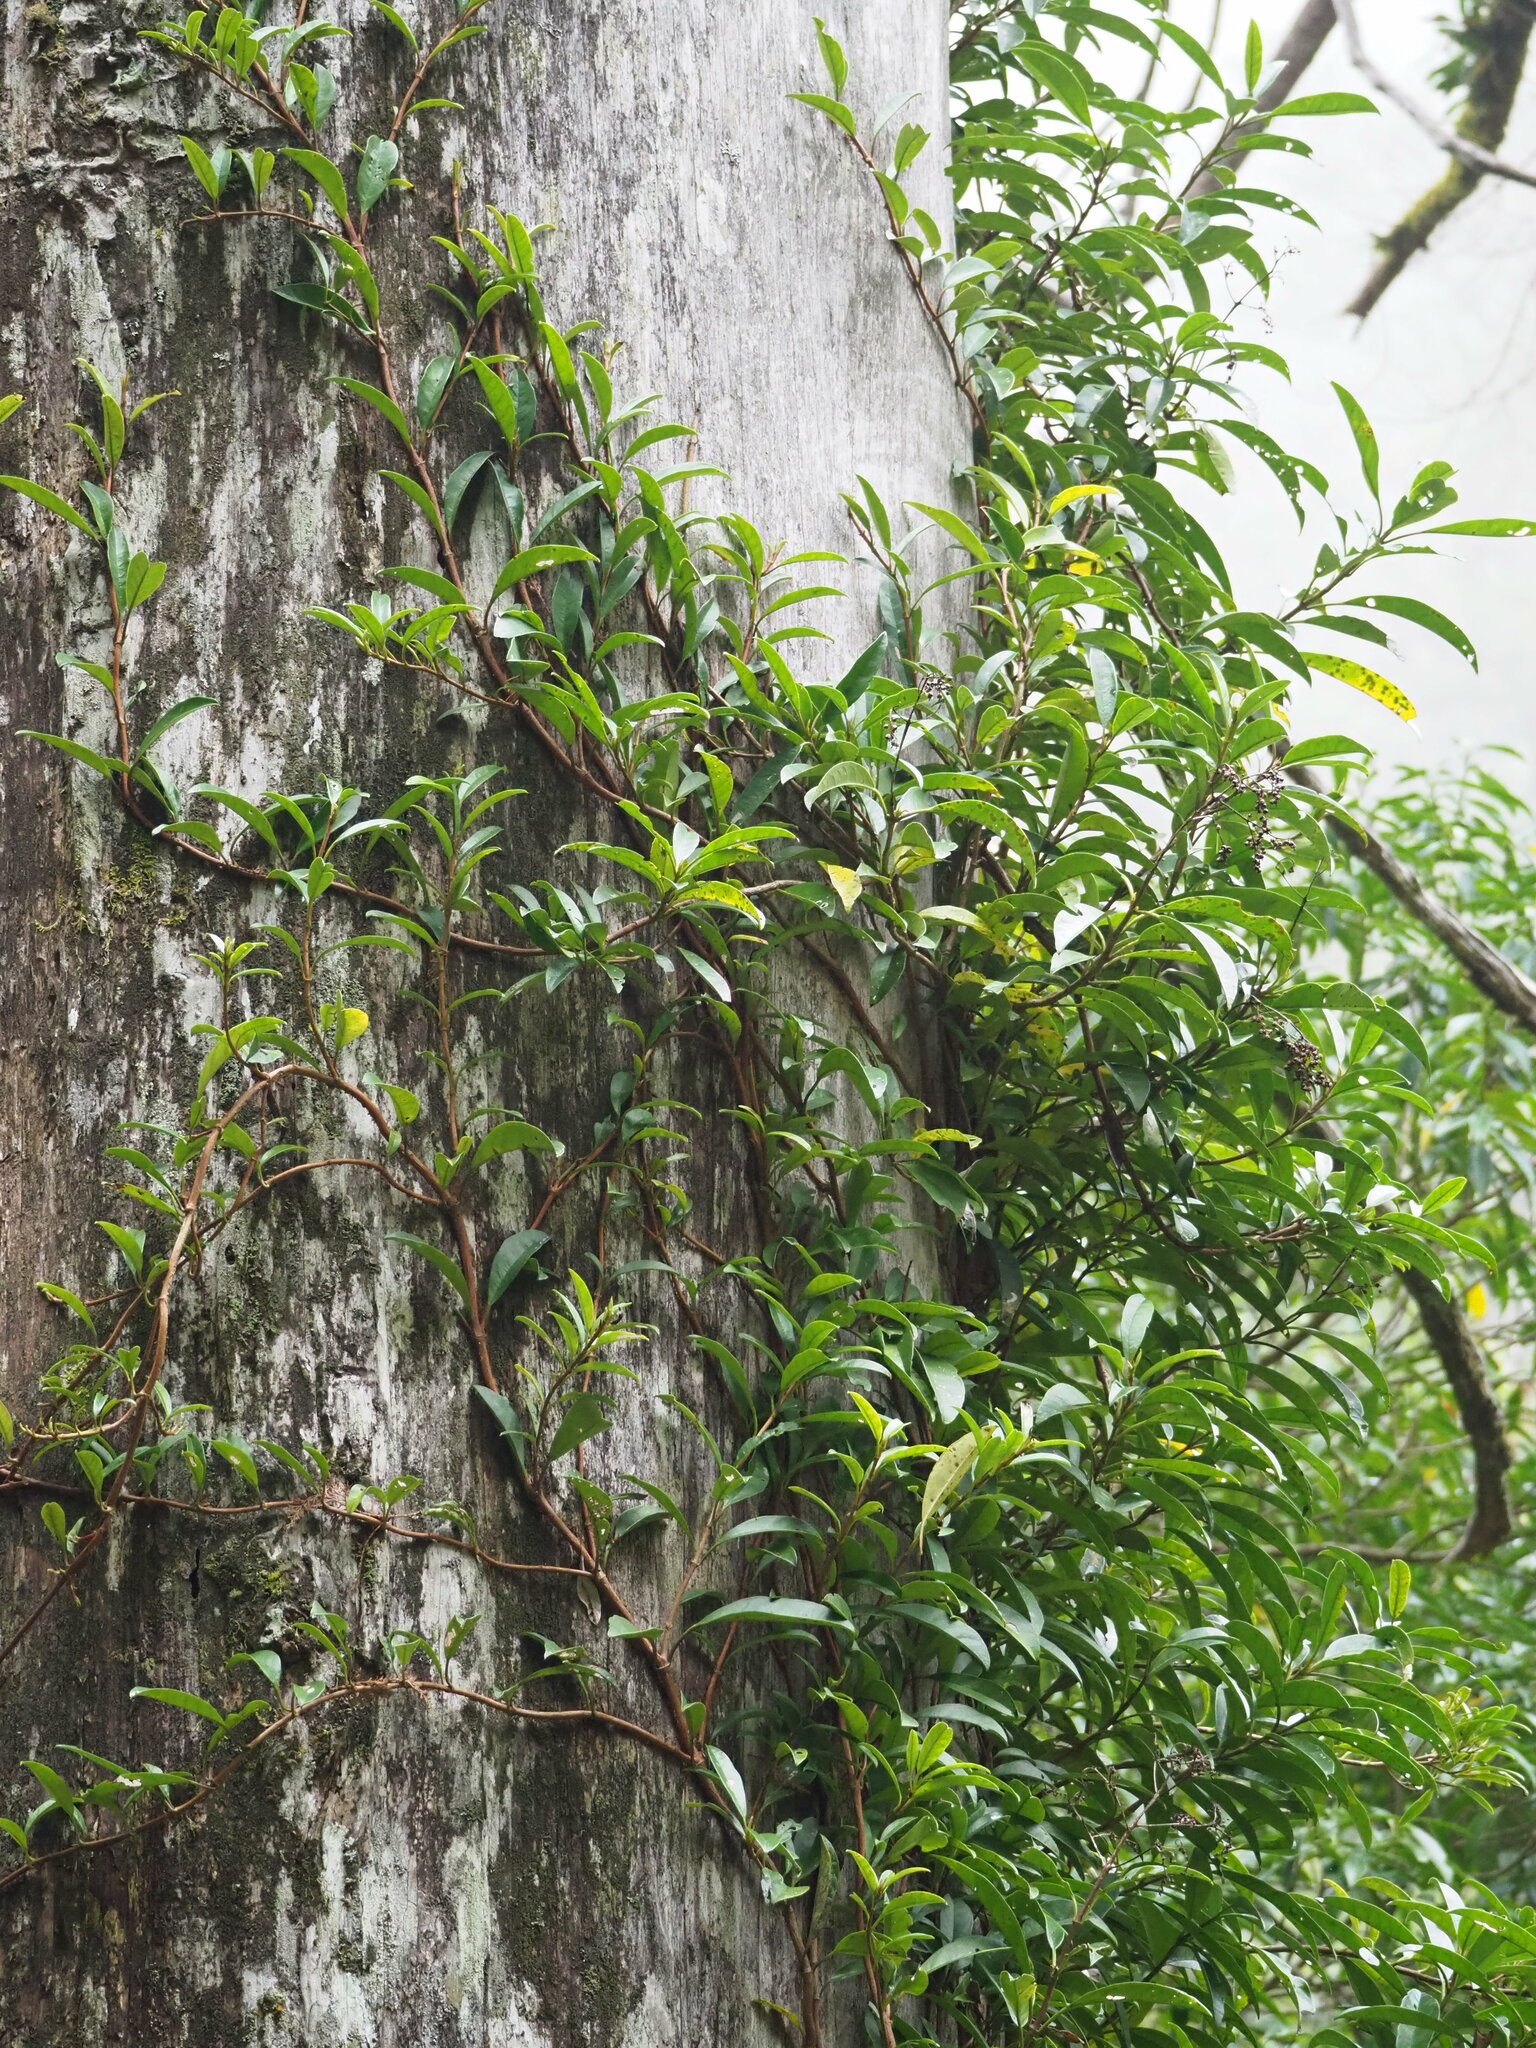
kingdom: Plantae
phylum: Tracheophyta
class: Magnoliopsida
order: Cornales
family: Hydrangeaceae
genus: Hydrangea
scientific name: Hydrangea viburnoides
